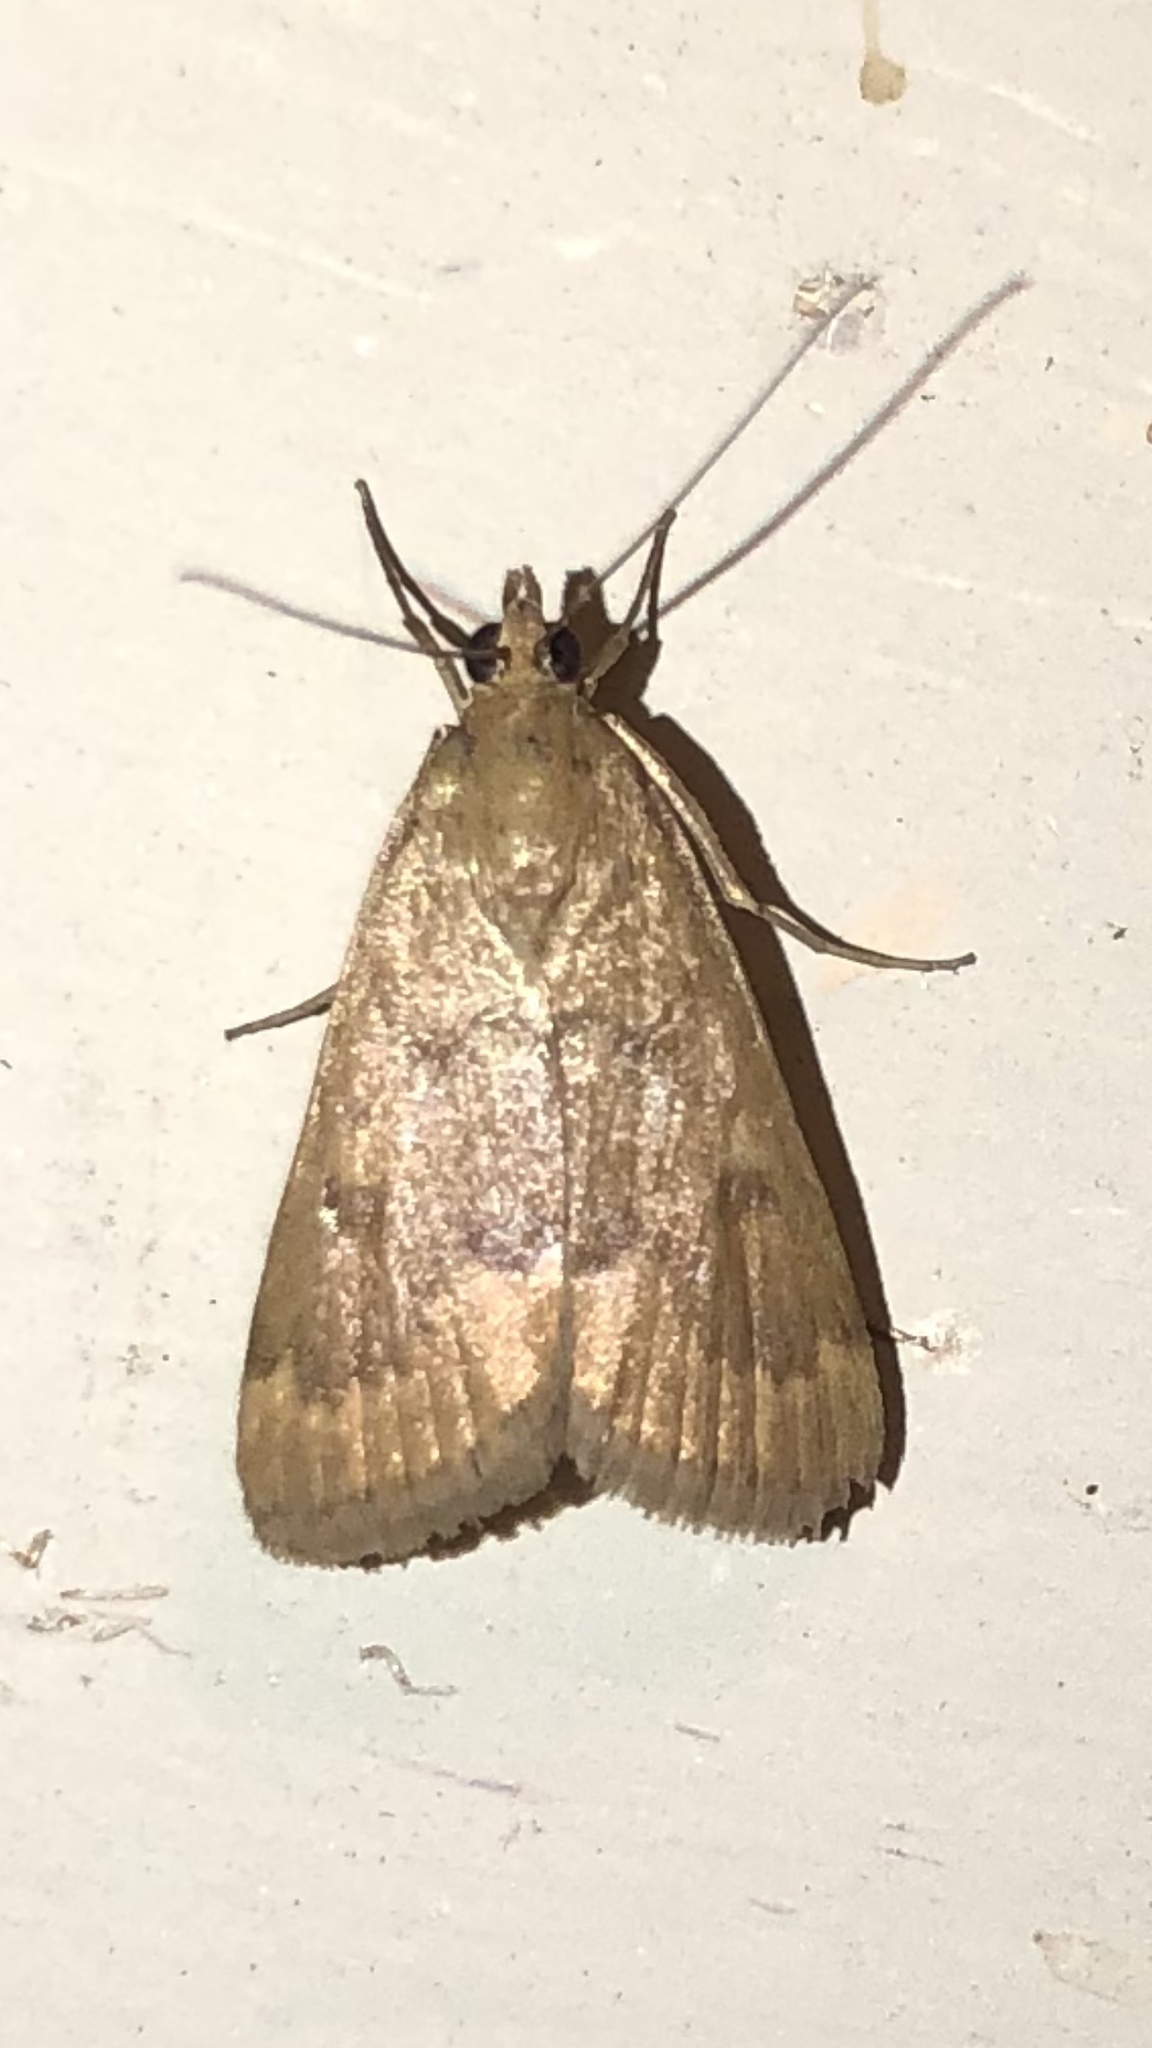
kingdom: Animalia
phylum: Arthropoda
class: Insecta
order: Lepidoptera
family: Crambidae
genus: Achyra
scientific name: Achyra rantalis
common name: Garden webworm
